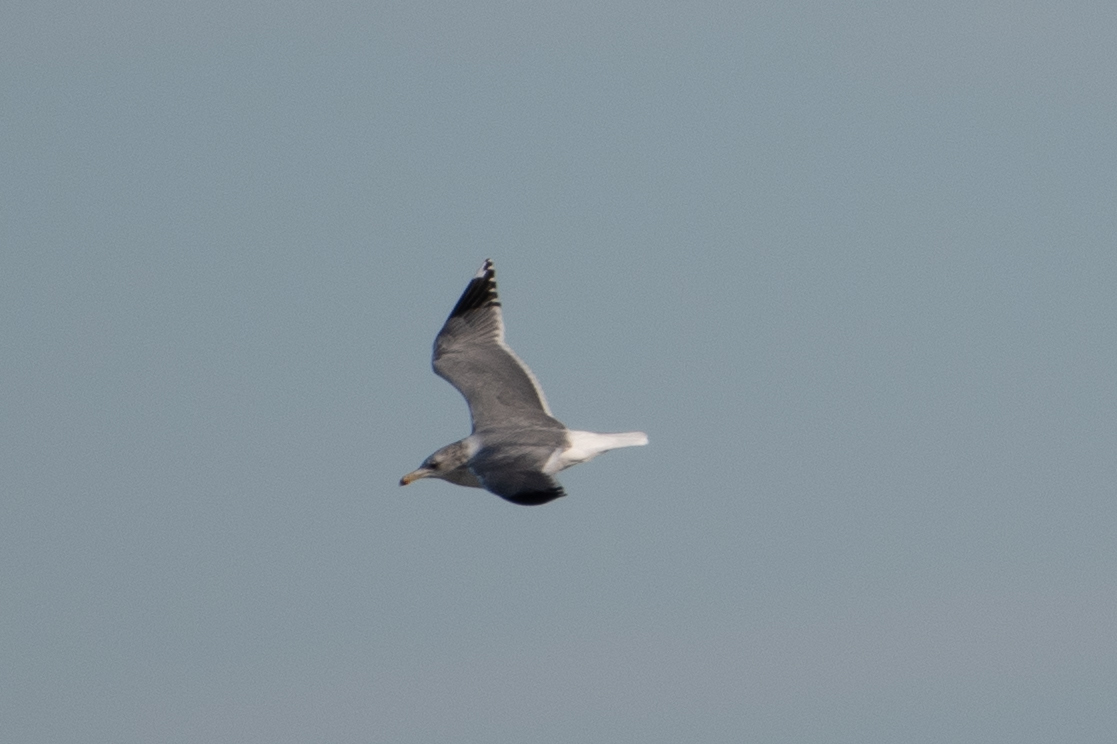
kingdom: Animalia
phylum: Chordata
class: Aves
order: Charadriiformes
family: Laridae
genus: Larus
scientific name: Larus californicus
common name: California gull
